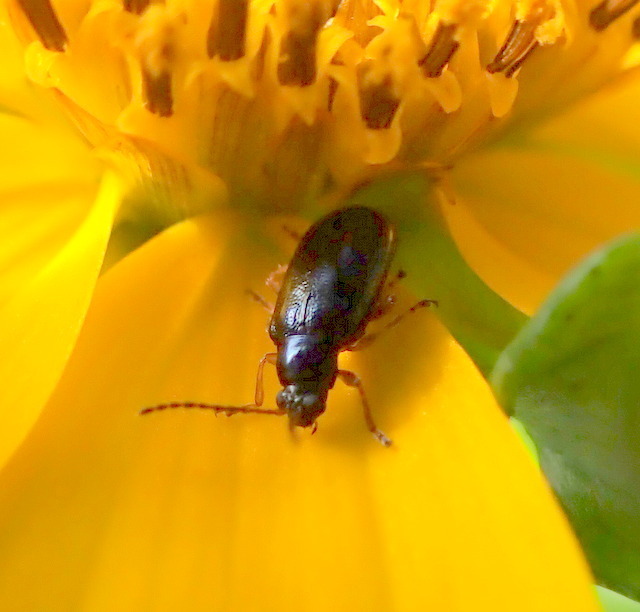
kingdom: Animalia
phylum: Arthropoda
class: Insecta
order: Coleoptera
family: Chrysomelidae
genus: Lysathia
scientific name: Lysathia ludoviciana
